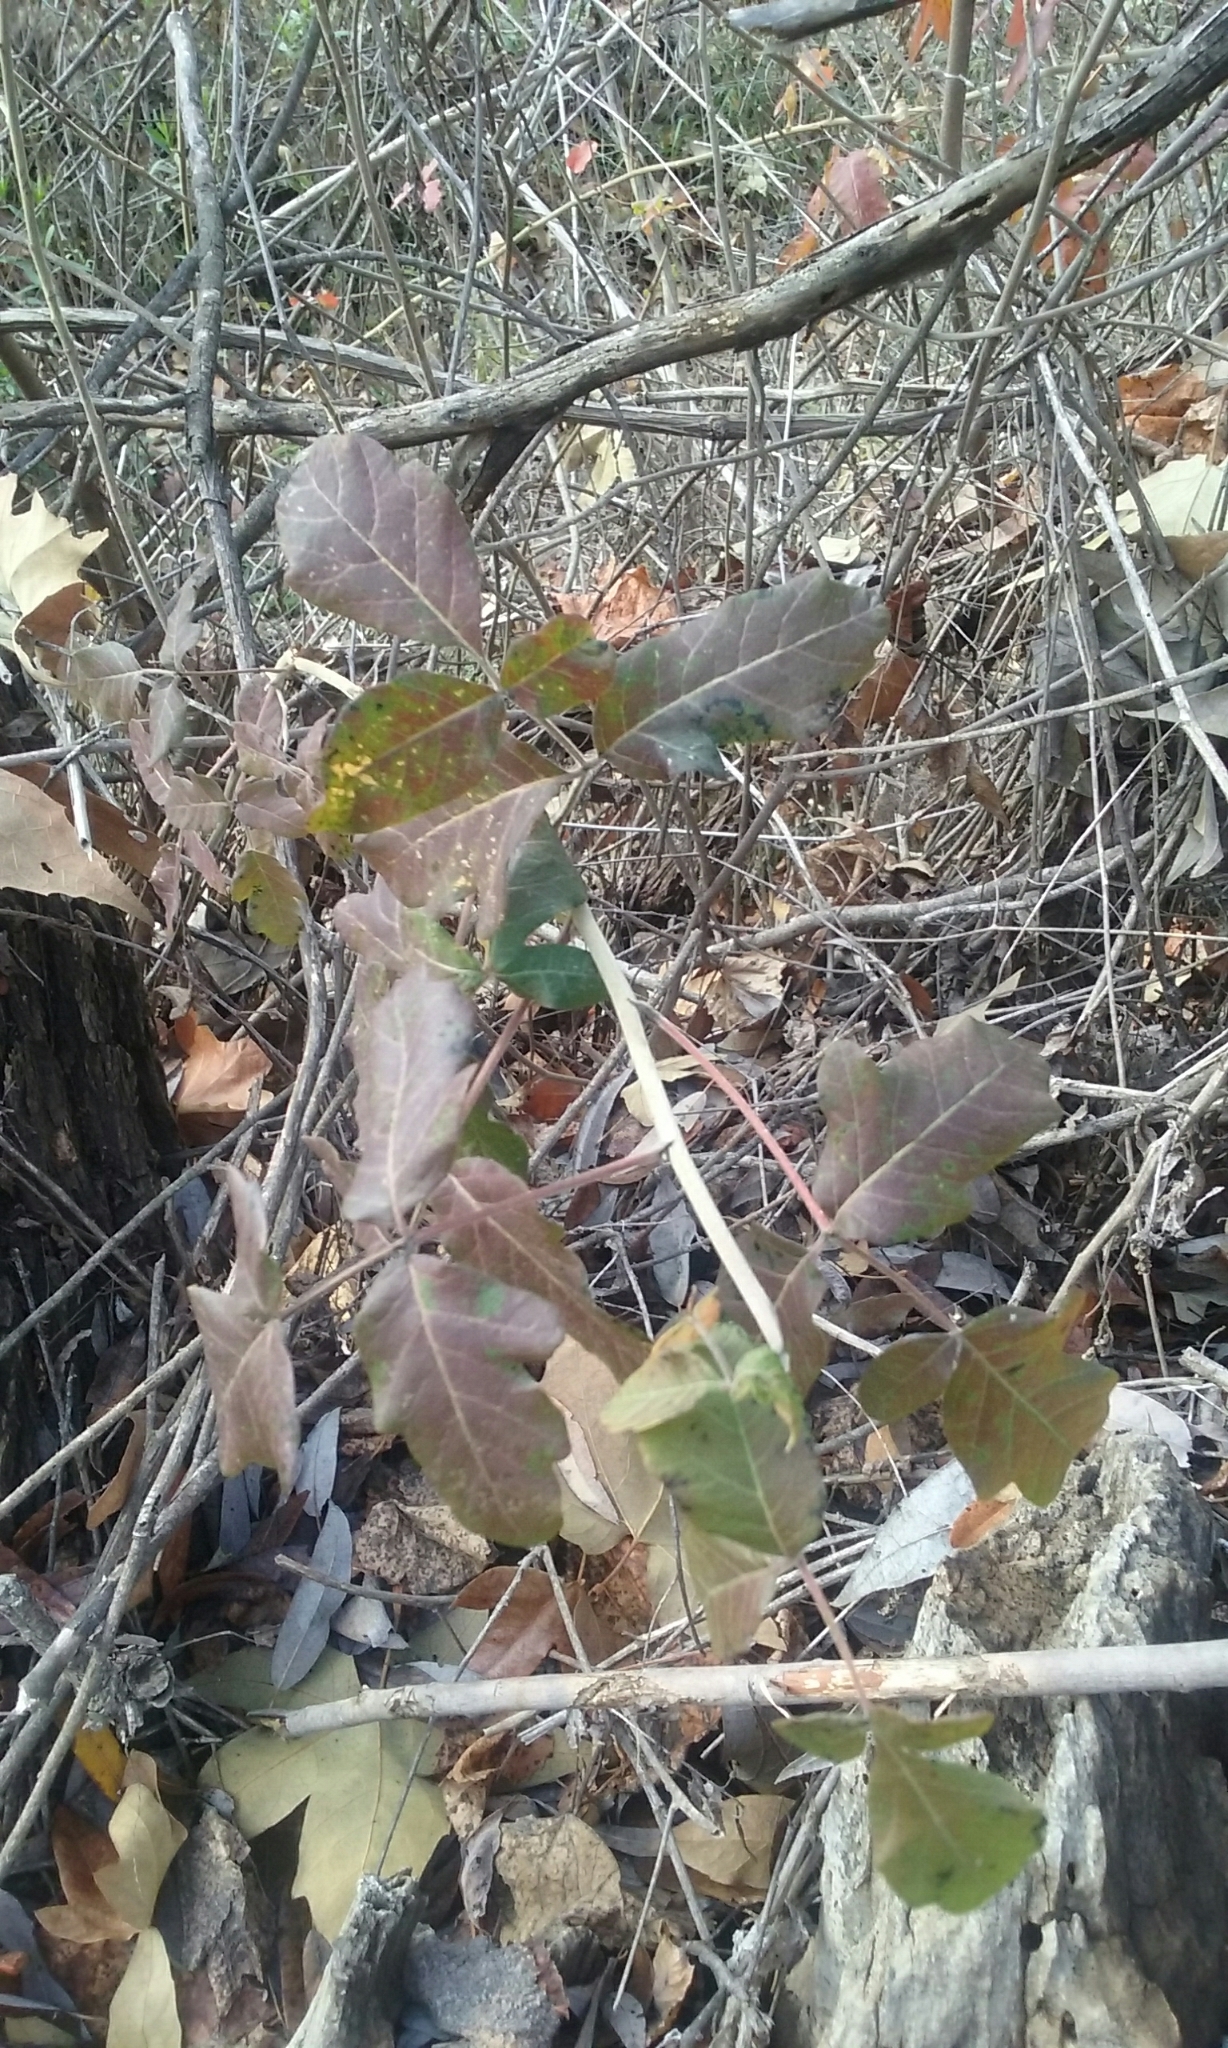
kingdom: Plantae
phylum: Tracheophyta
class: Magnoliopsida
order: Sapindales
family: Anacardiaceae
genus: Toxicodendron
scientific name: Toxicodendron diversilobum
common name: Pacific poison-oak
